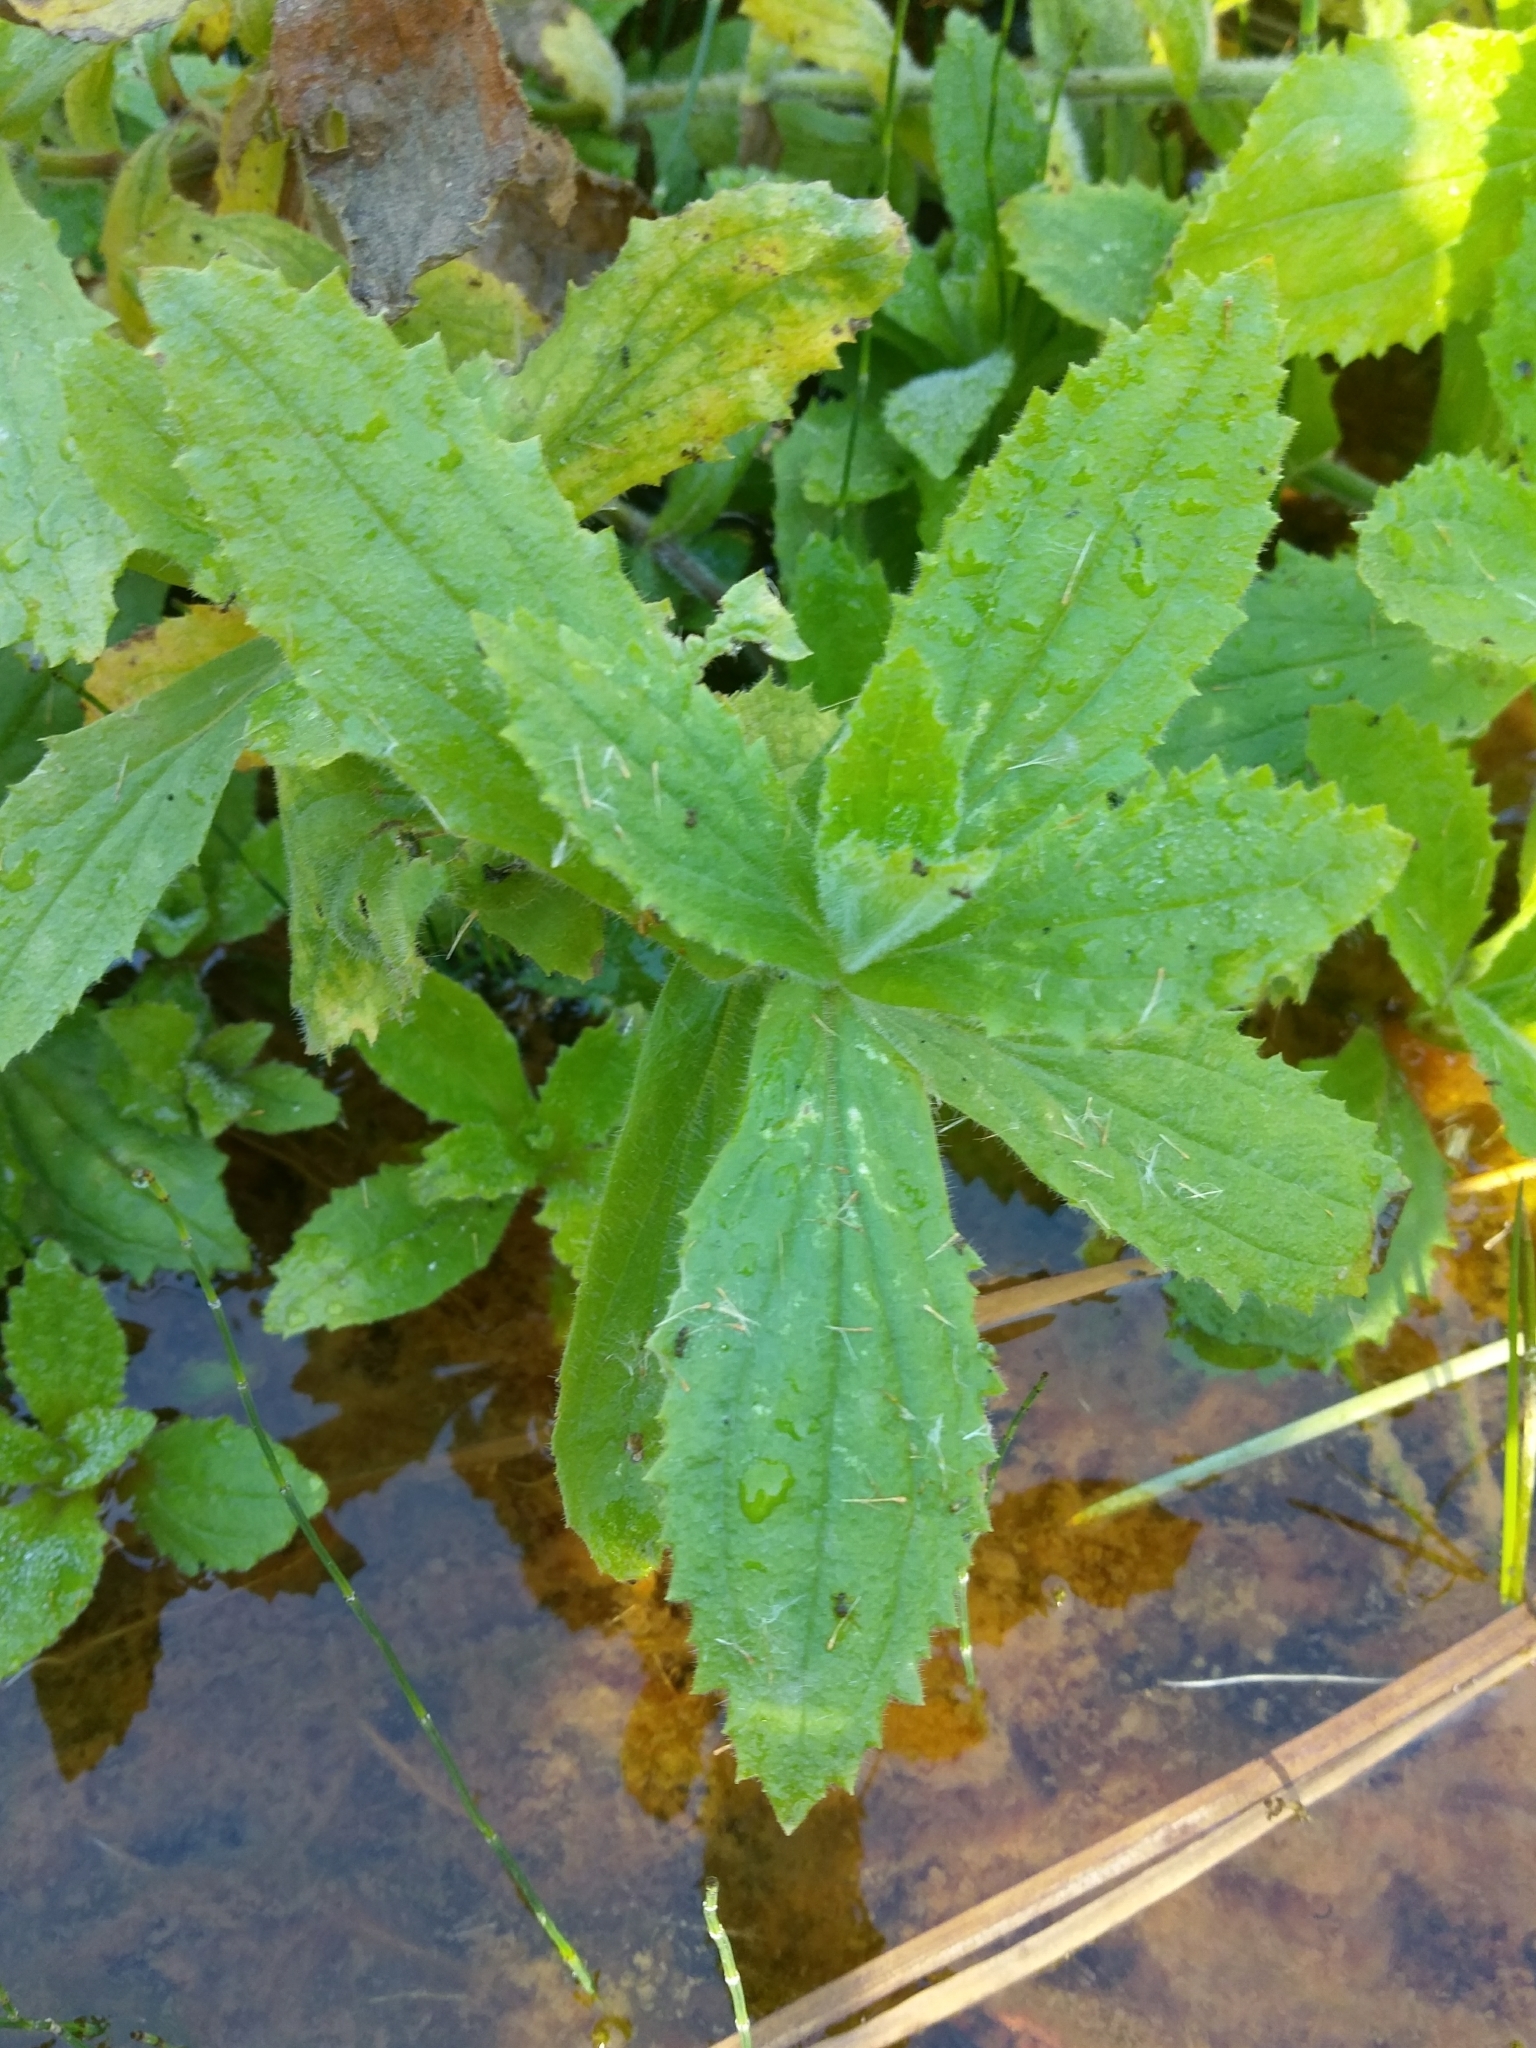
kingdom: Plantae
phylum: Tracheophyta
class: Magnoliopsida
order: Lamiales
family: Phrymaceae
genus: Erythranthe
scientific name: Erythranthe cardinalis
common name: Scarlet monkey-flower
